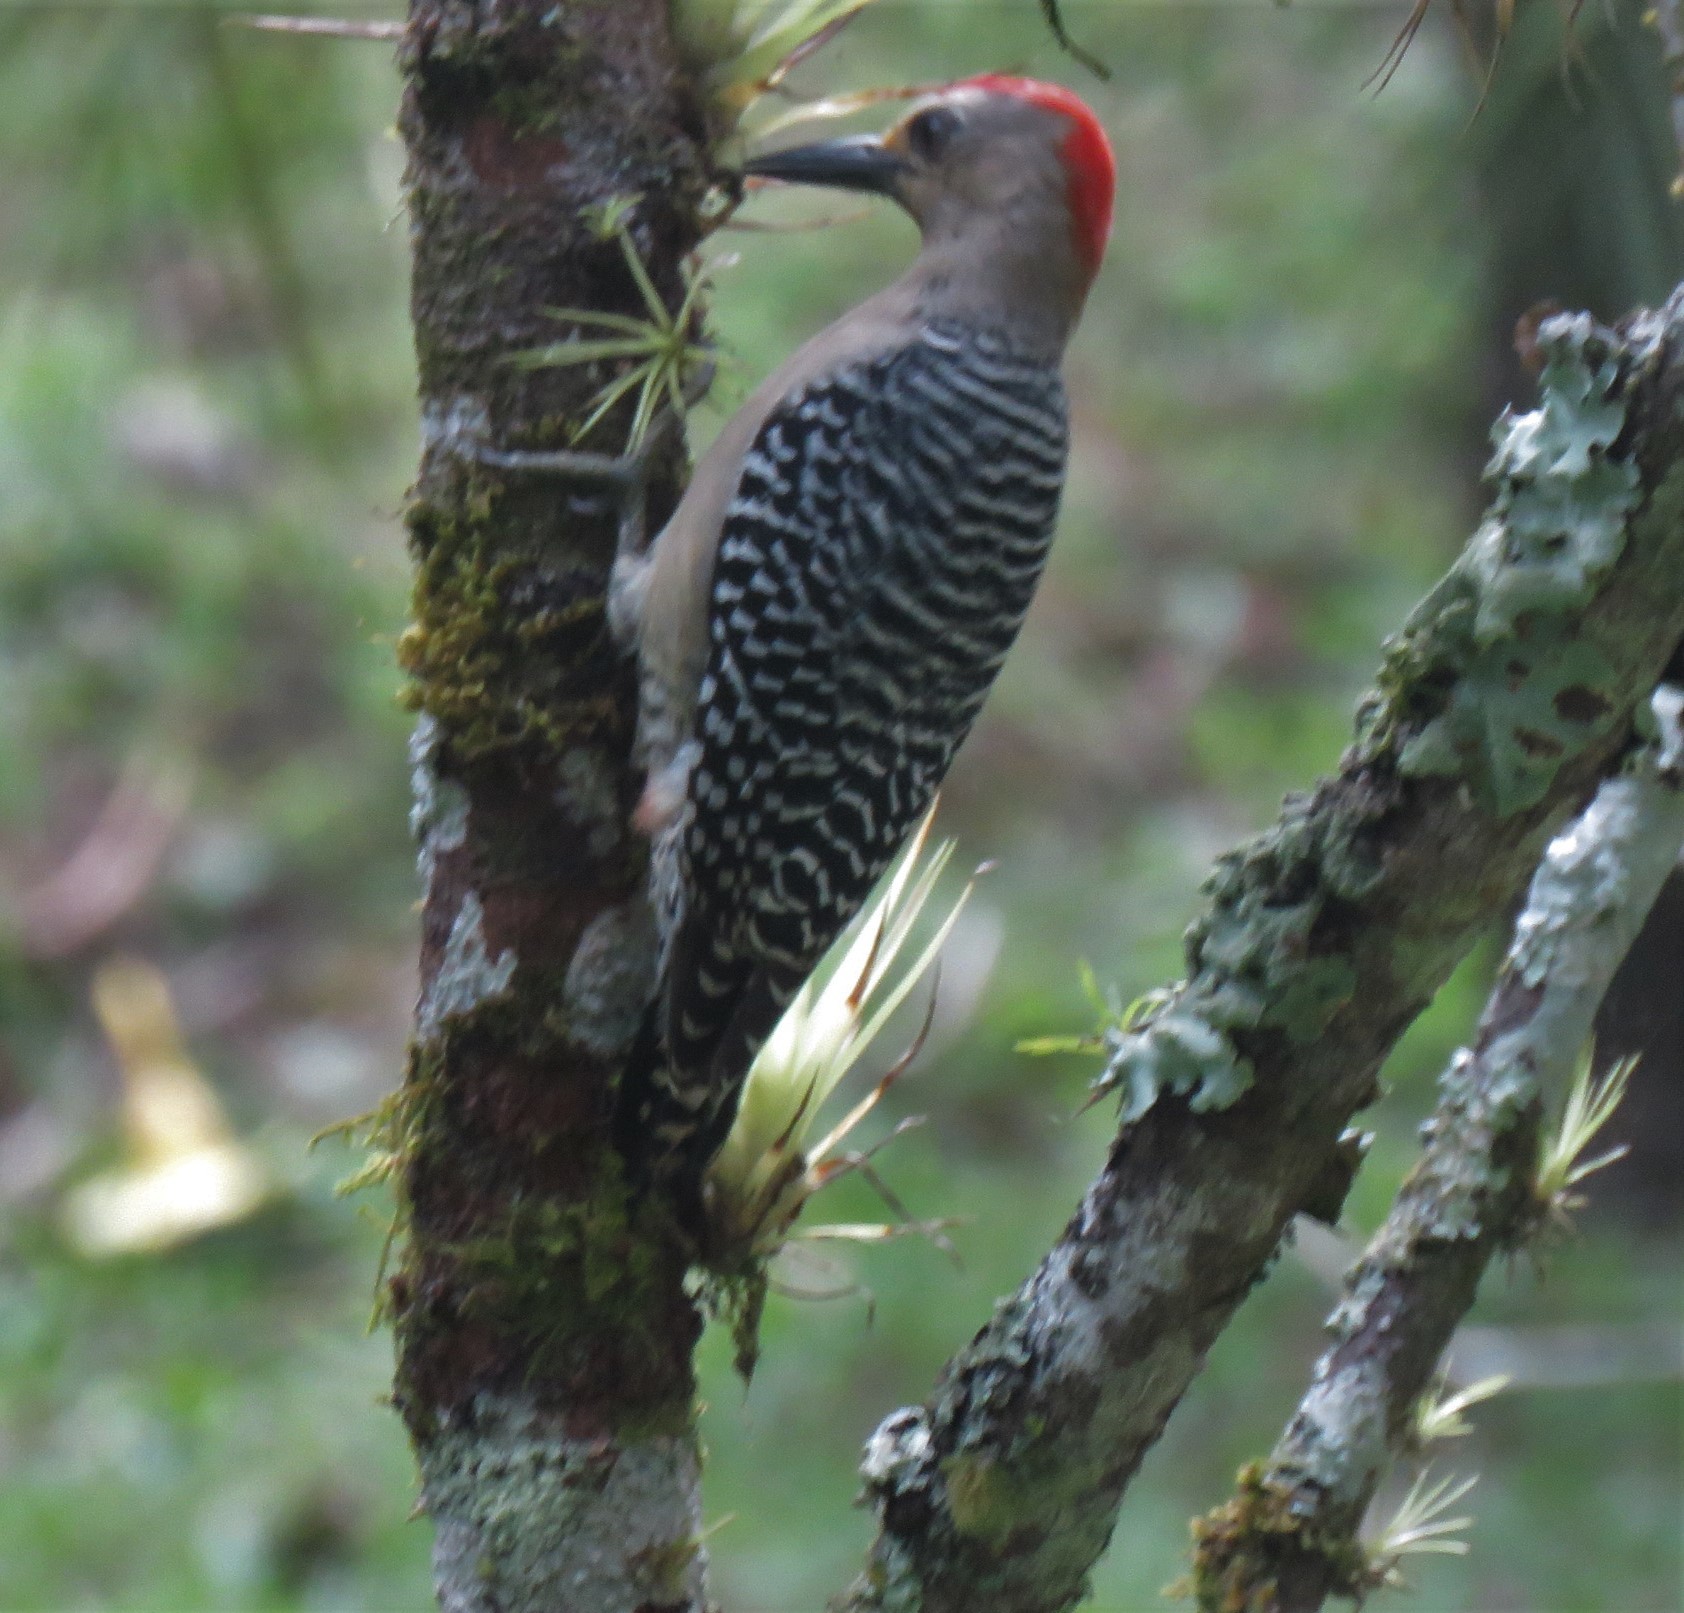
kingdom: Animalia
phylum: Chordata
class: Aves
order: Piciformes
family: Picidae
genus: Melanerpes
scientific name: Melanerpes rubricapillus
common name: Red-crowned woodpecker
